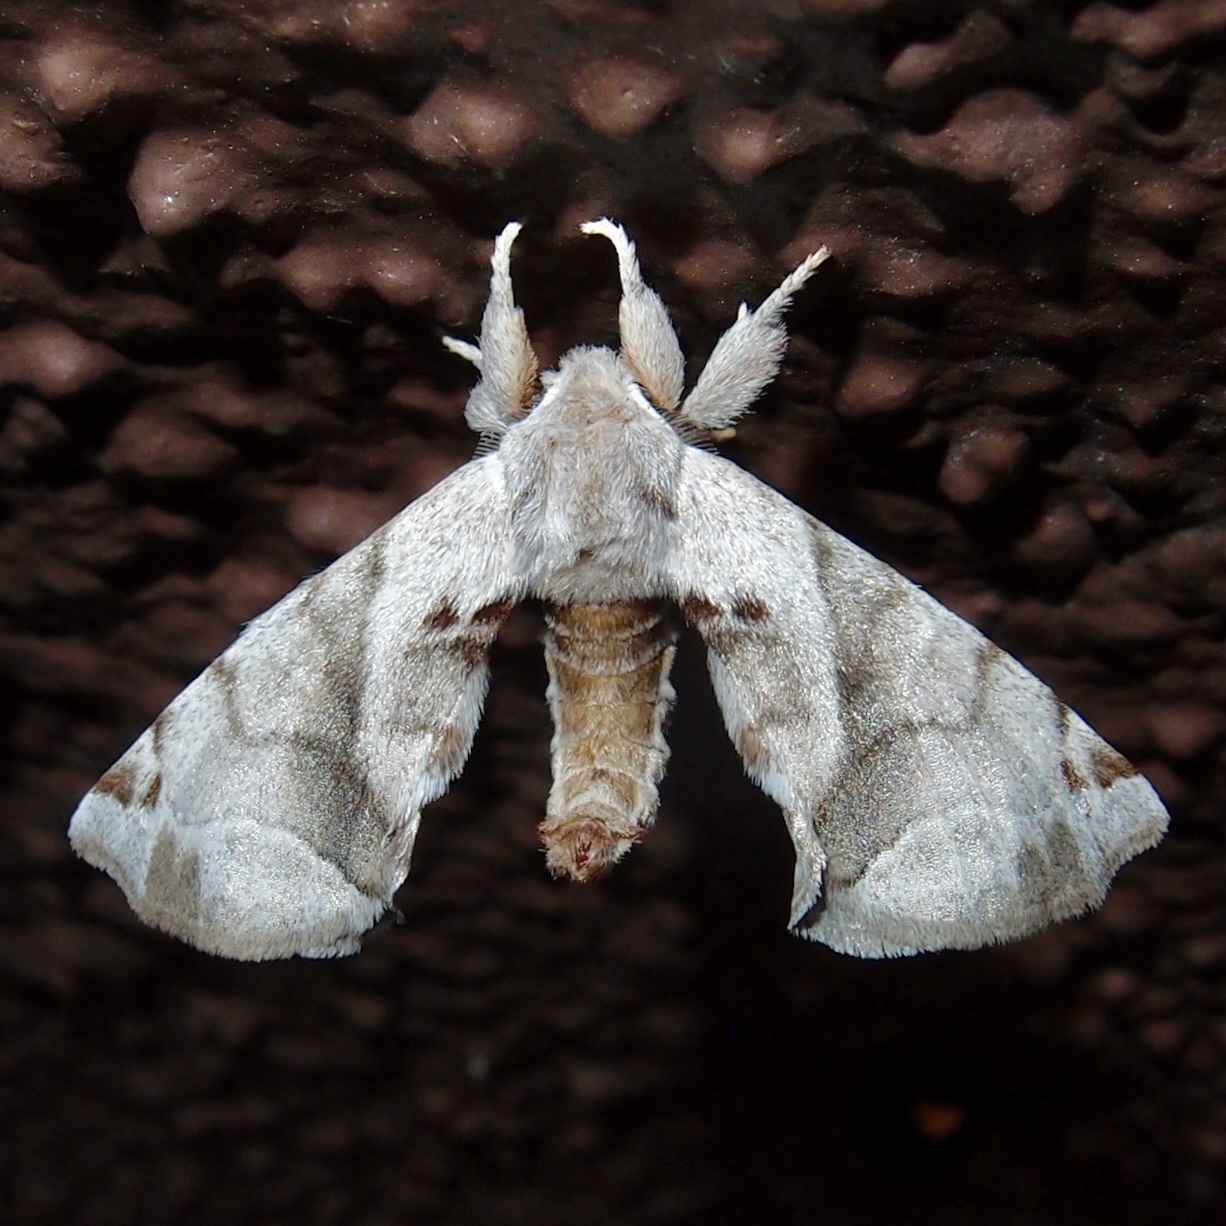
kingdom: Animalia
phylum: Arthropoda
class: Insecta
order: Lepidoptera
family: Apatelodidae
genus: Hygrochroa
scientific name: Hygrochroa Apatelodes pudefacta
